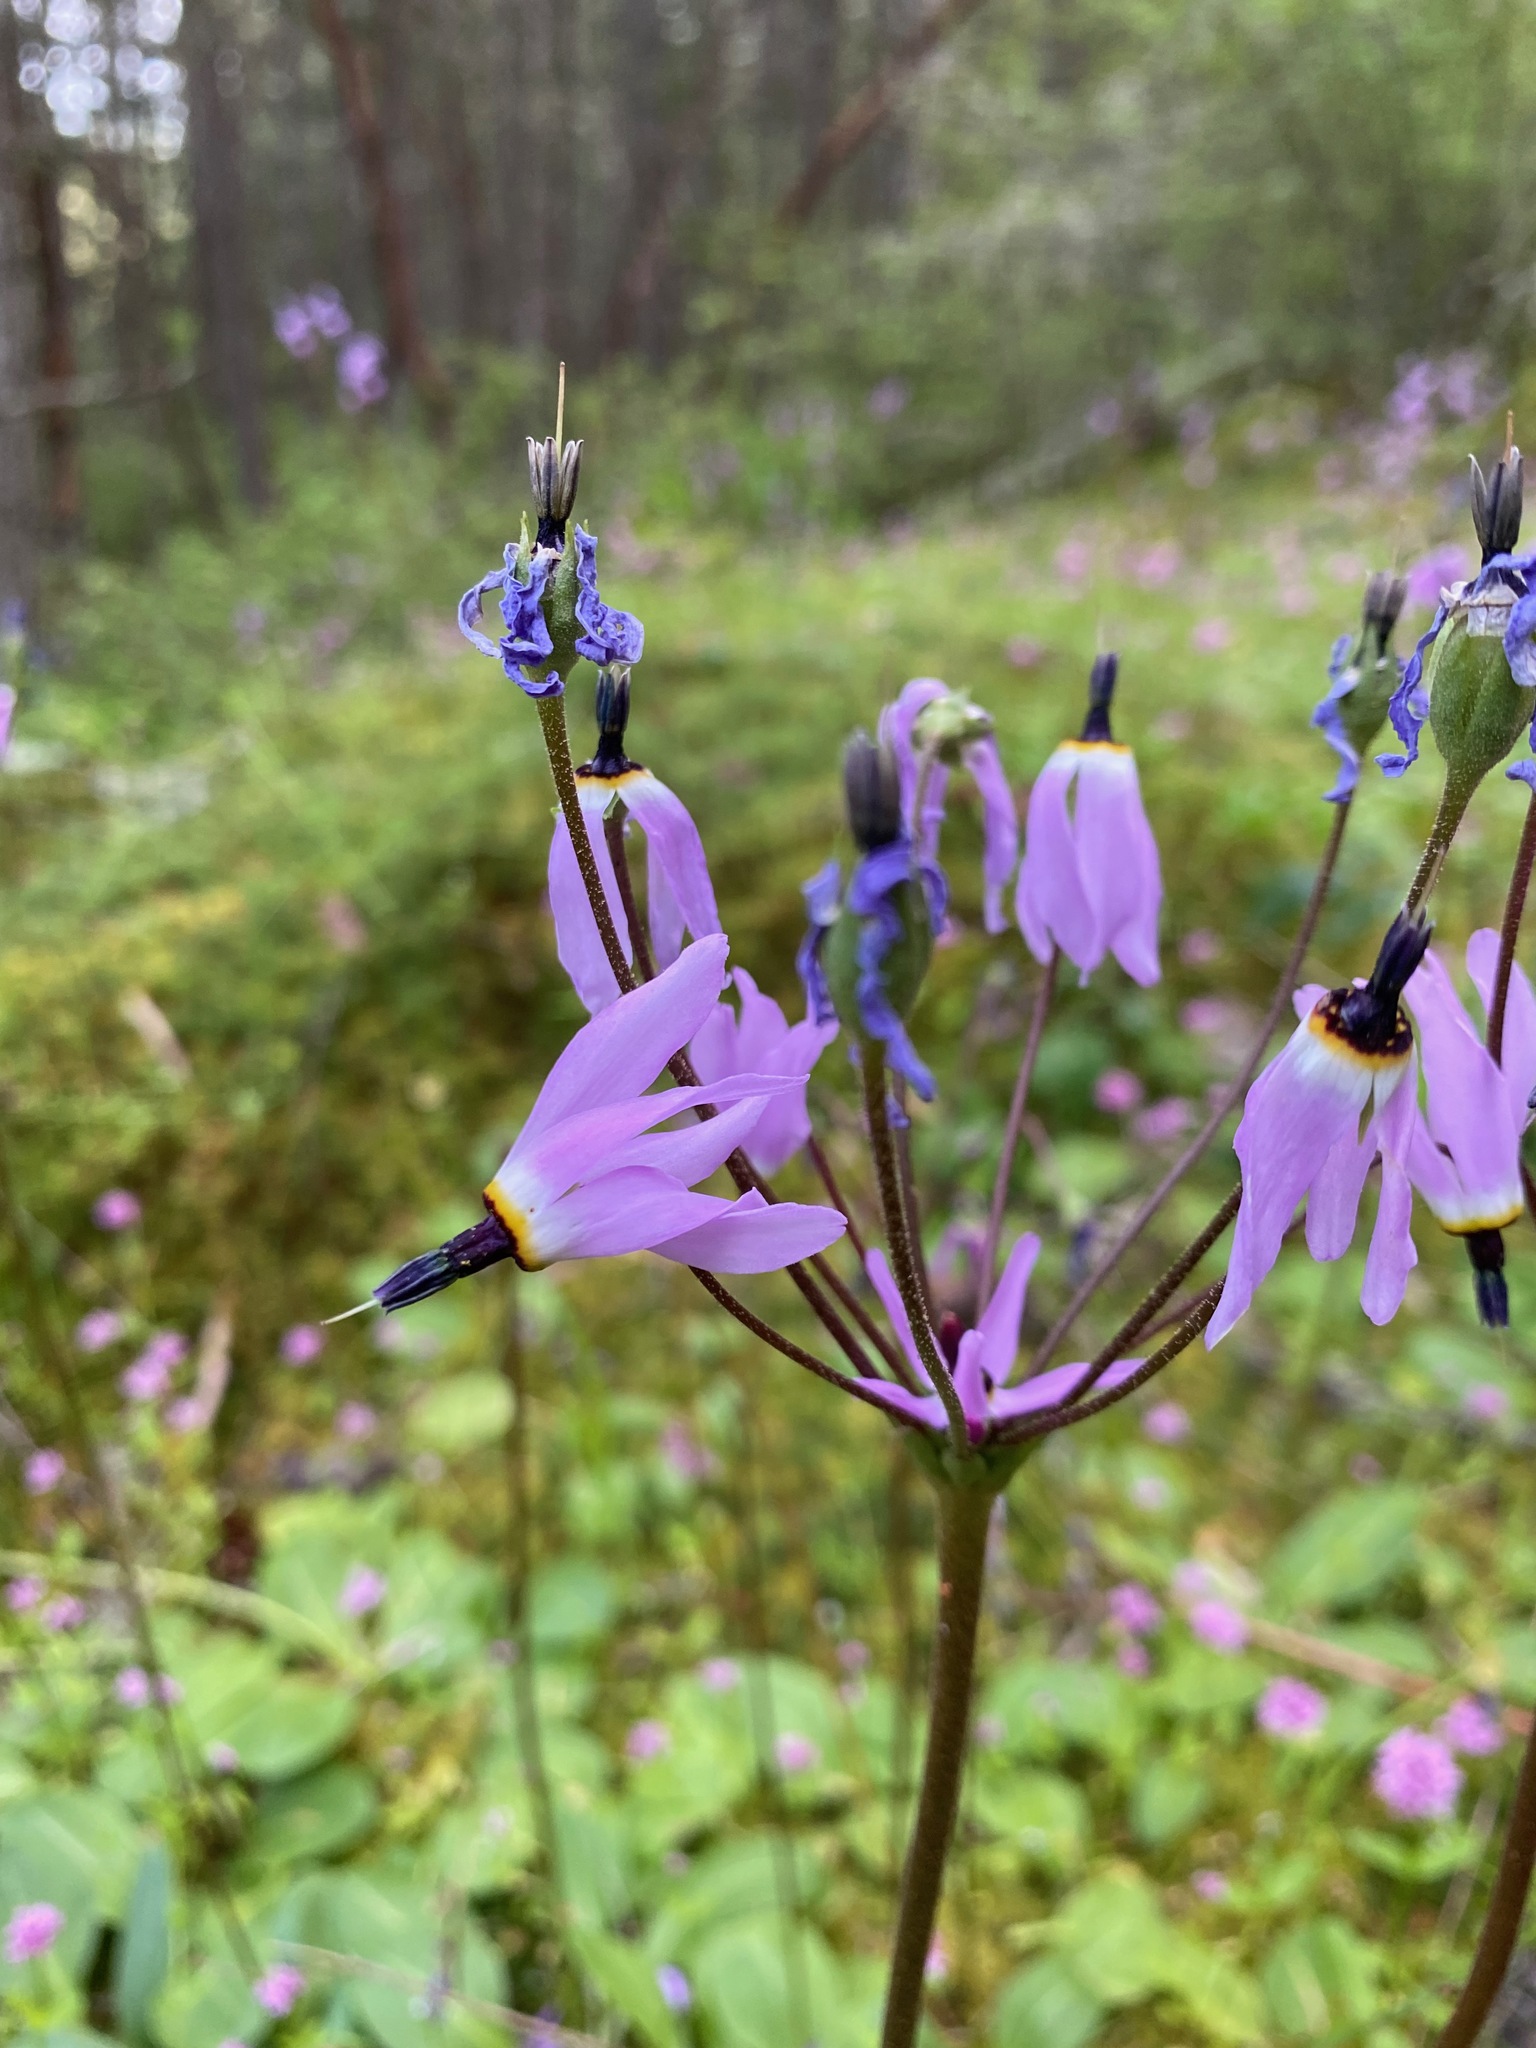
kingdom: Plantae
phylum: Tracheophyta
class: Magnoliopsida
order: Ericales
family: Primulaceae
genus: Dodecatheon
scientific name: Dodecatheon hendersonii
